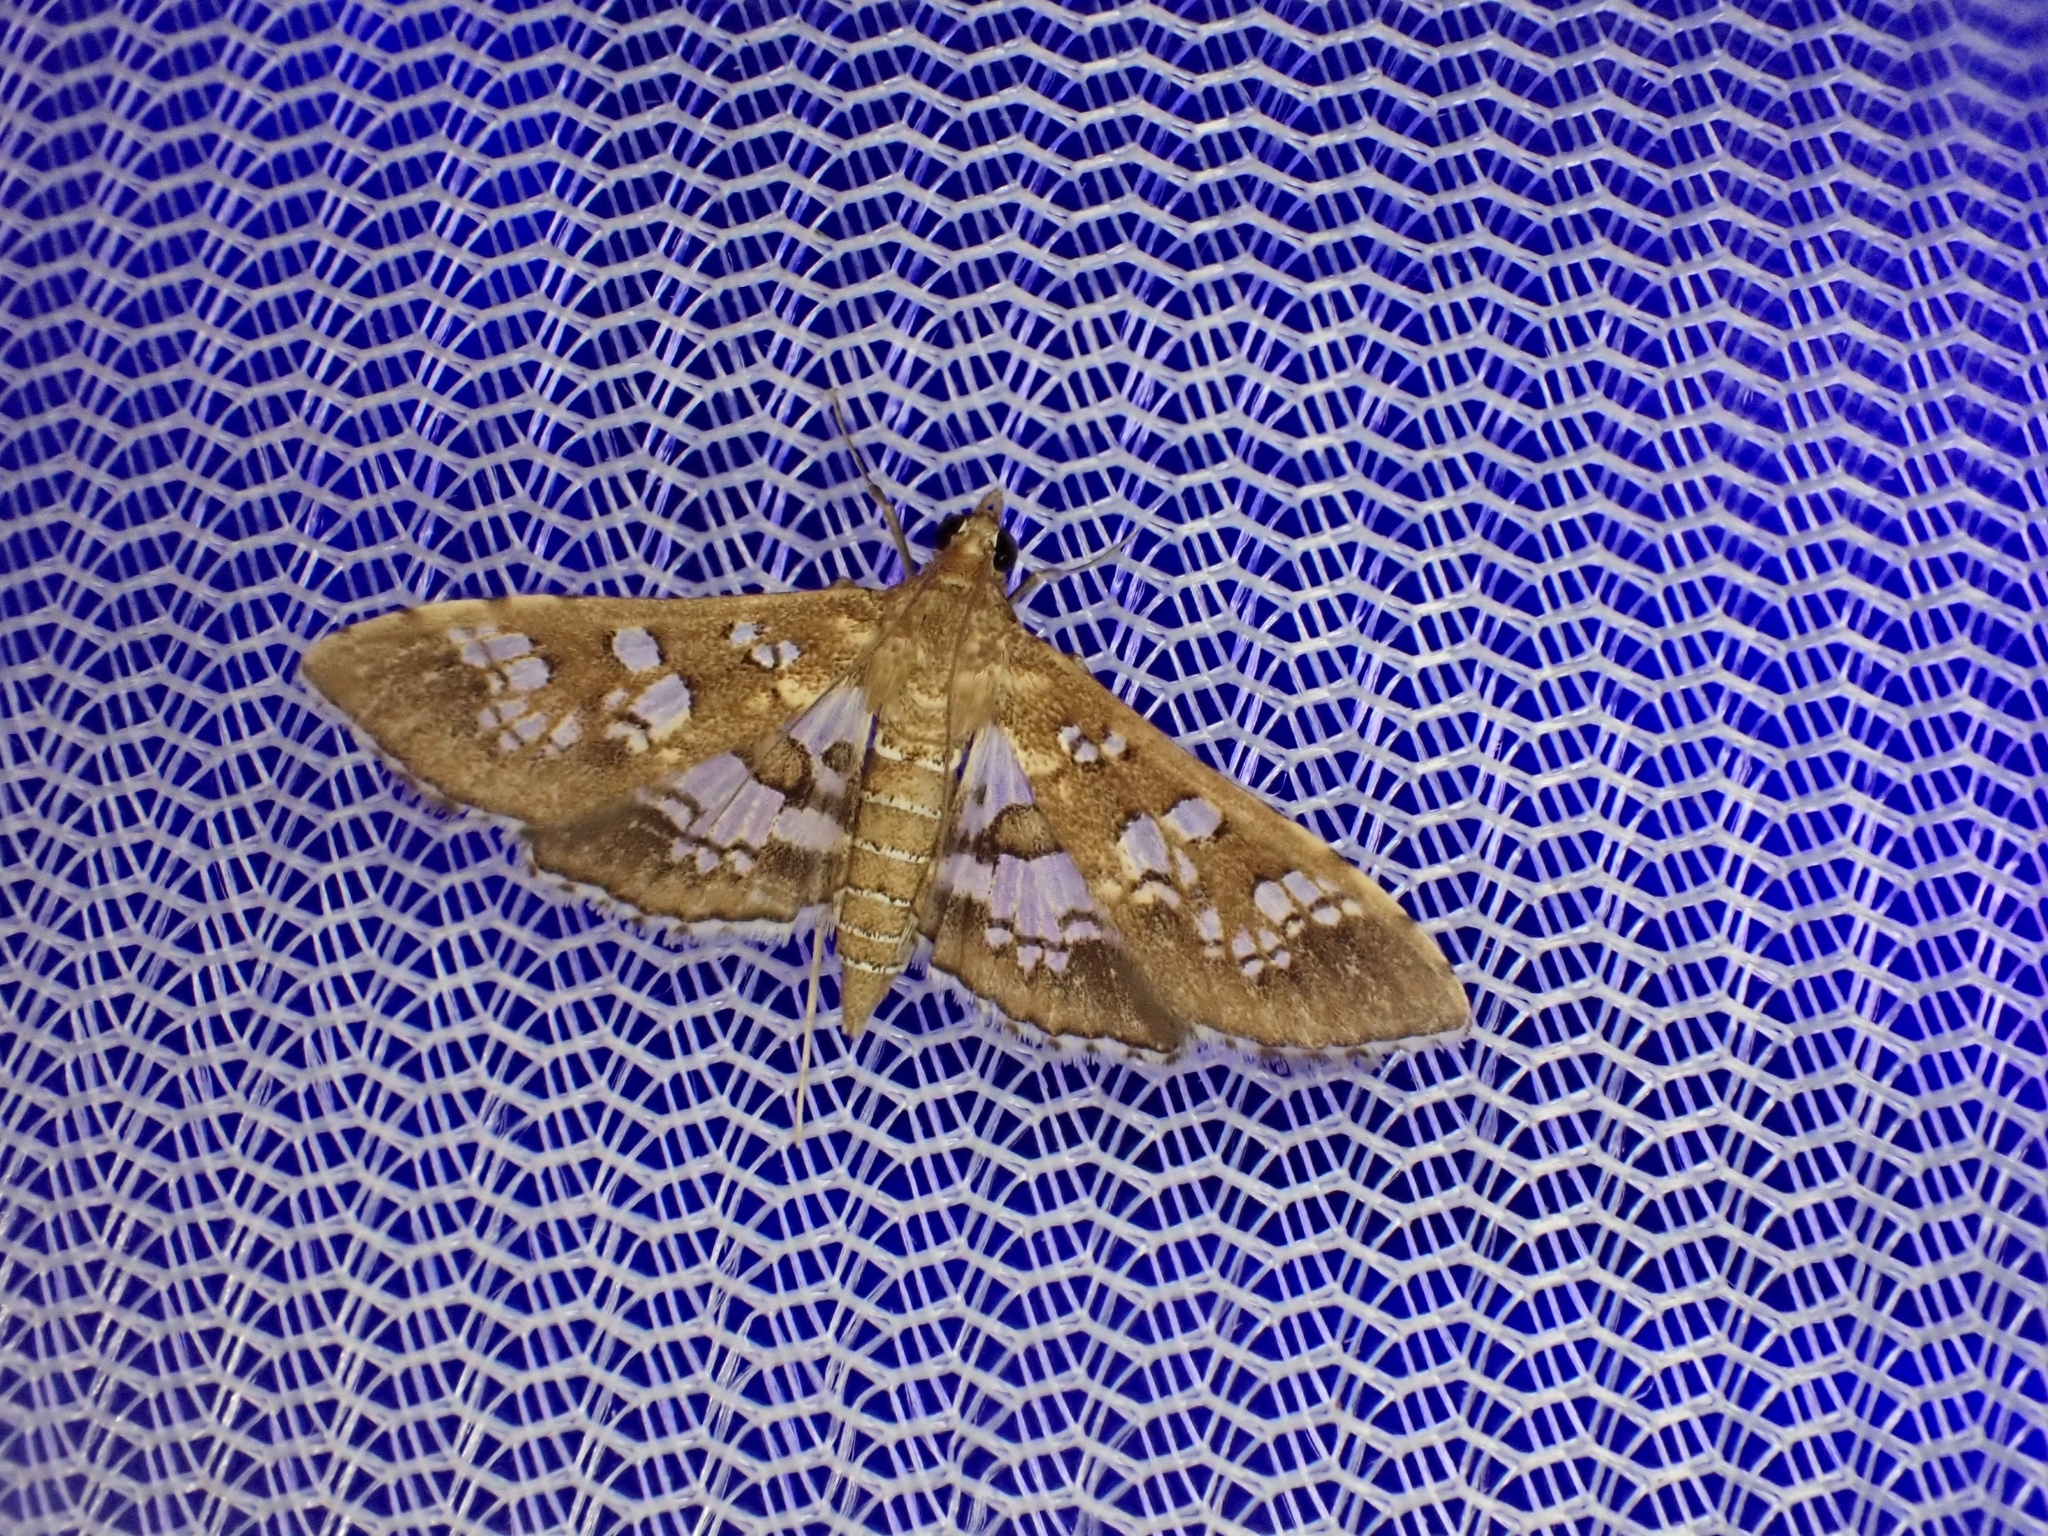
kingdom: Animalia
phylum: Arthropoda
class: Insecta
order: Lepidoptera
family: Crambidae
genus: Sameodes
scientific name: Sameodes cancellalis
